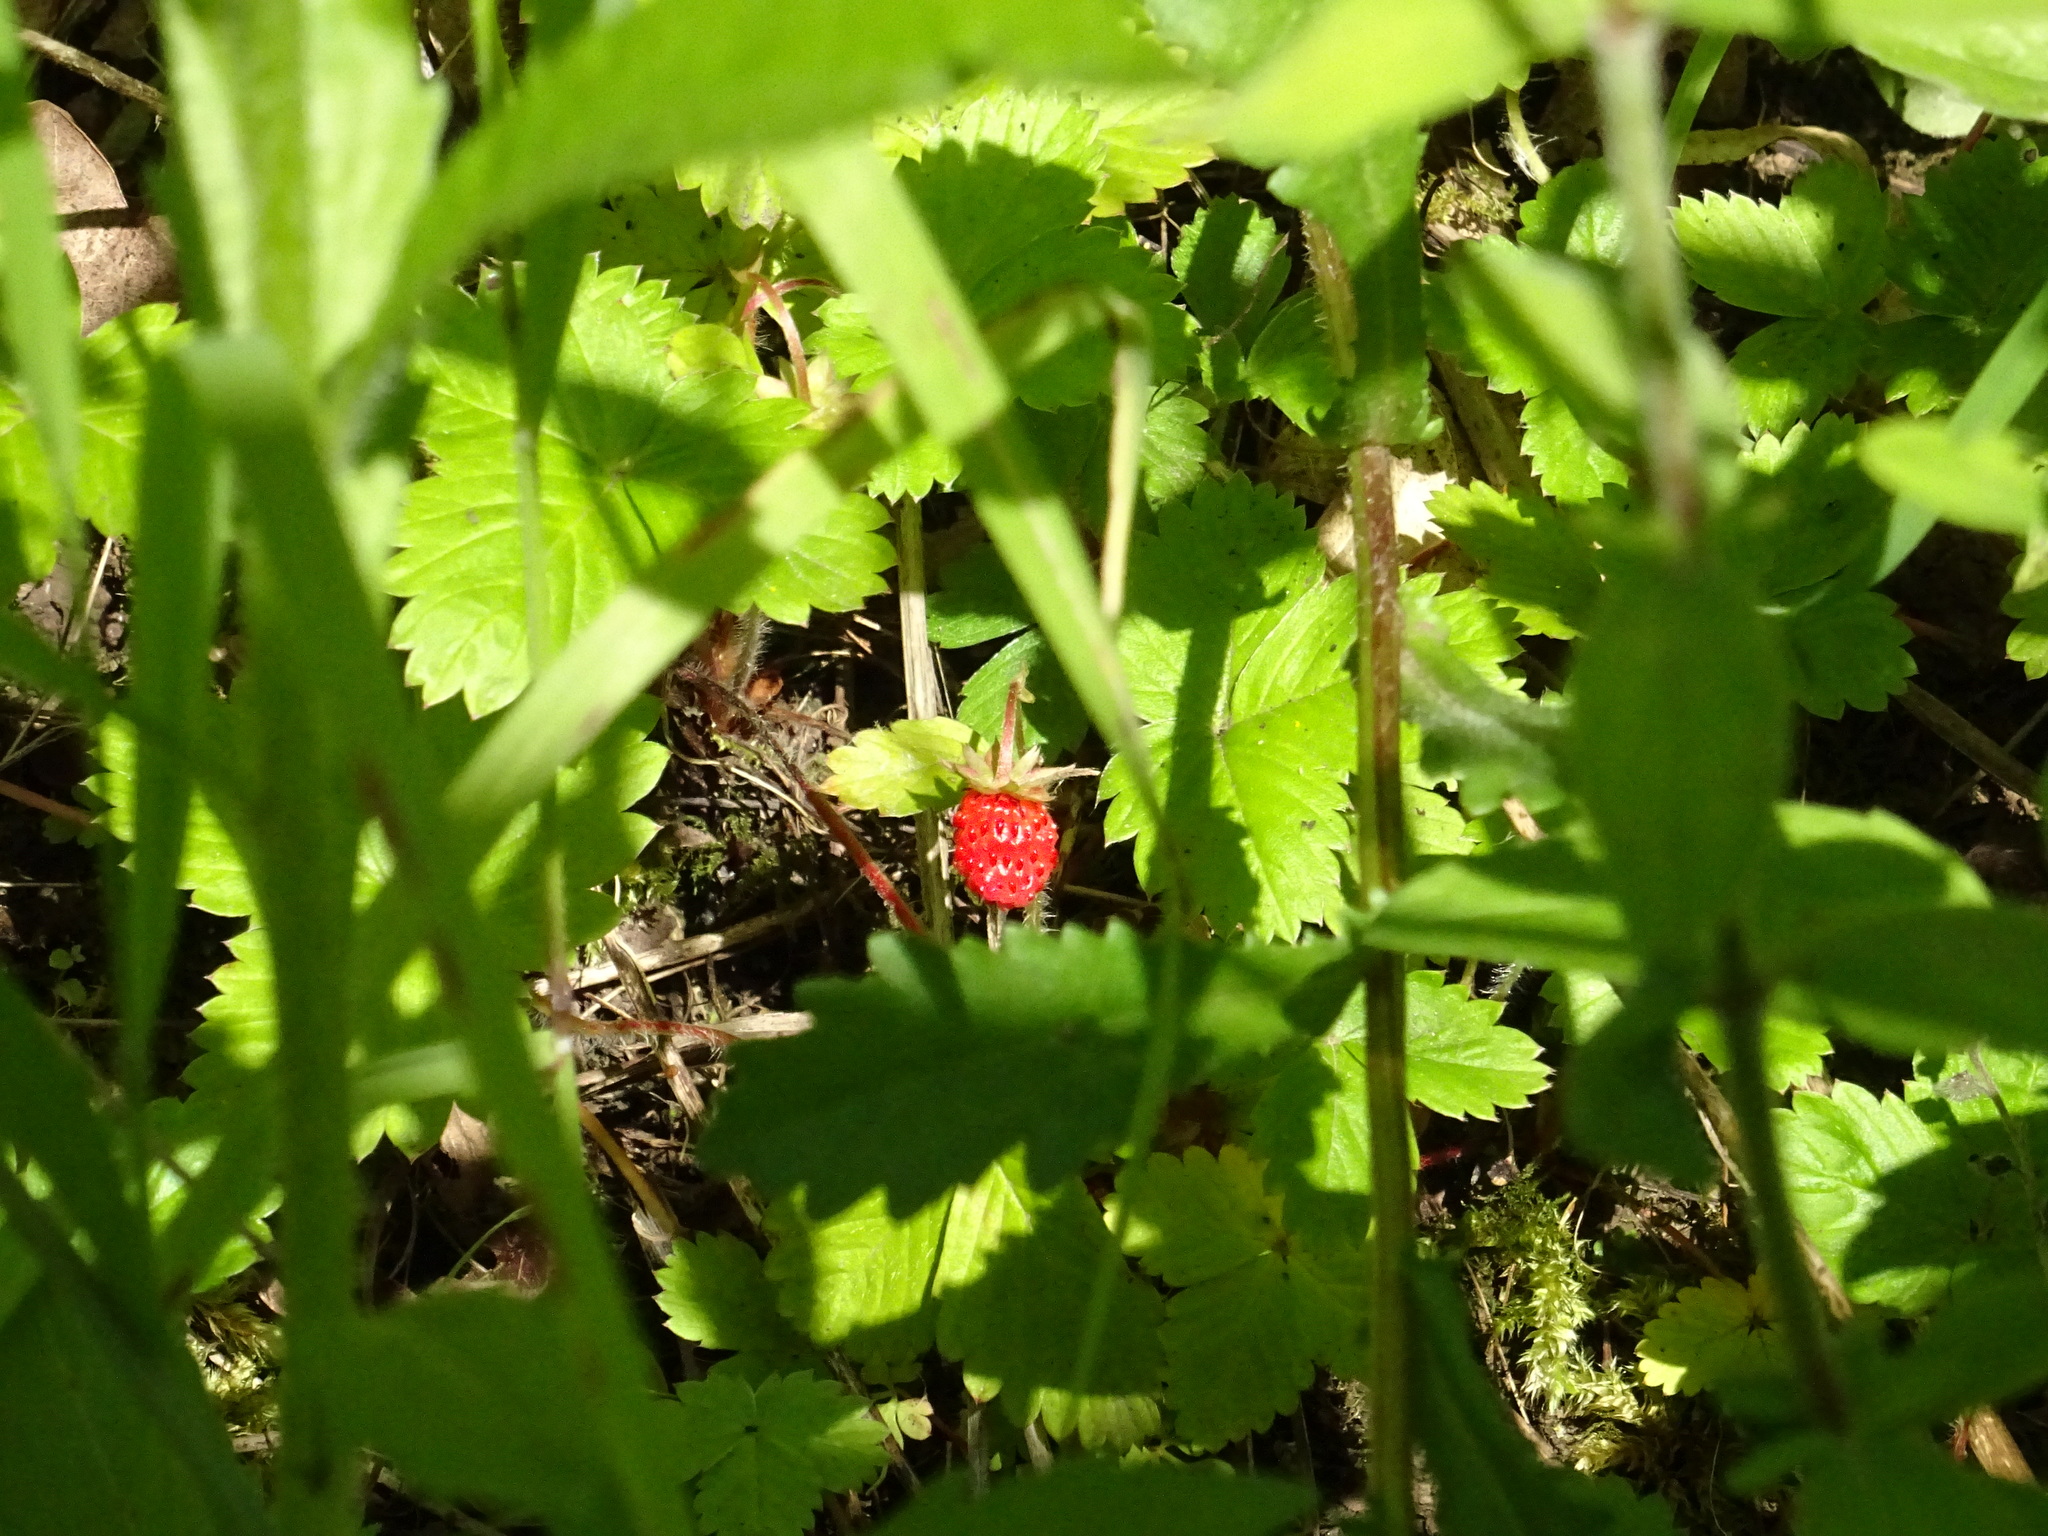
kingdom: Plantae
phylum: Tracheophyta
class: Magnoliopsida
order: Rosales
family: Rosaceae
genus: Fragaria
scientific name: Fragaria vesca
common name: Wild strawberry
